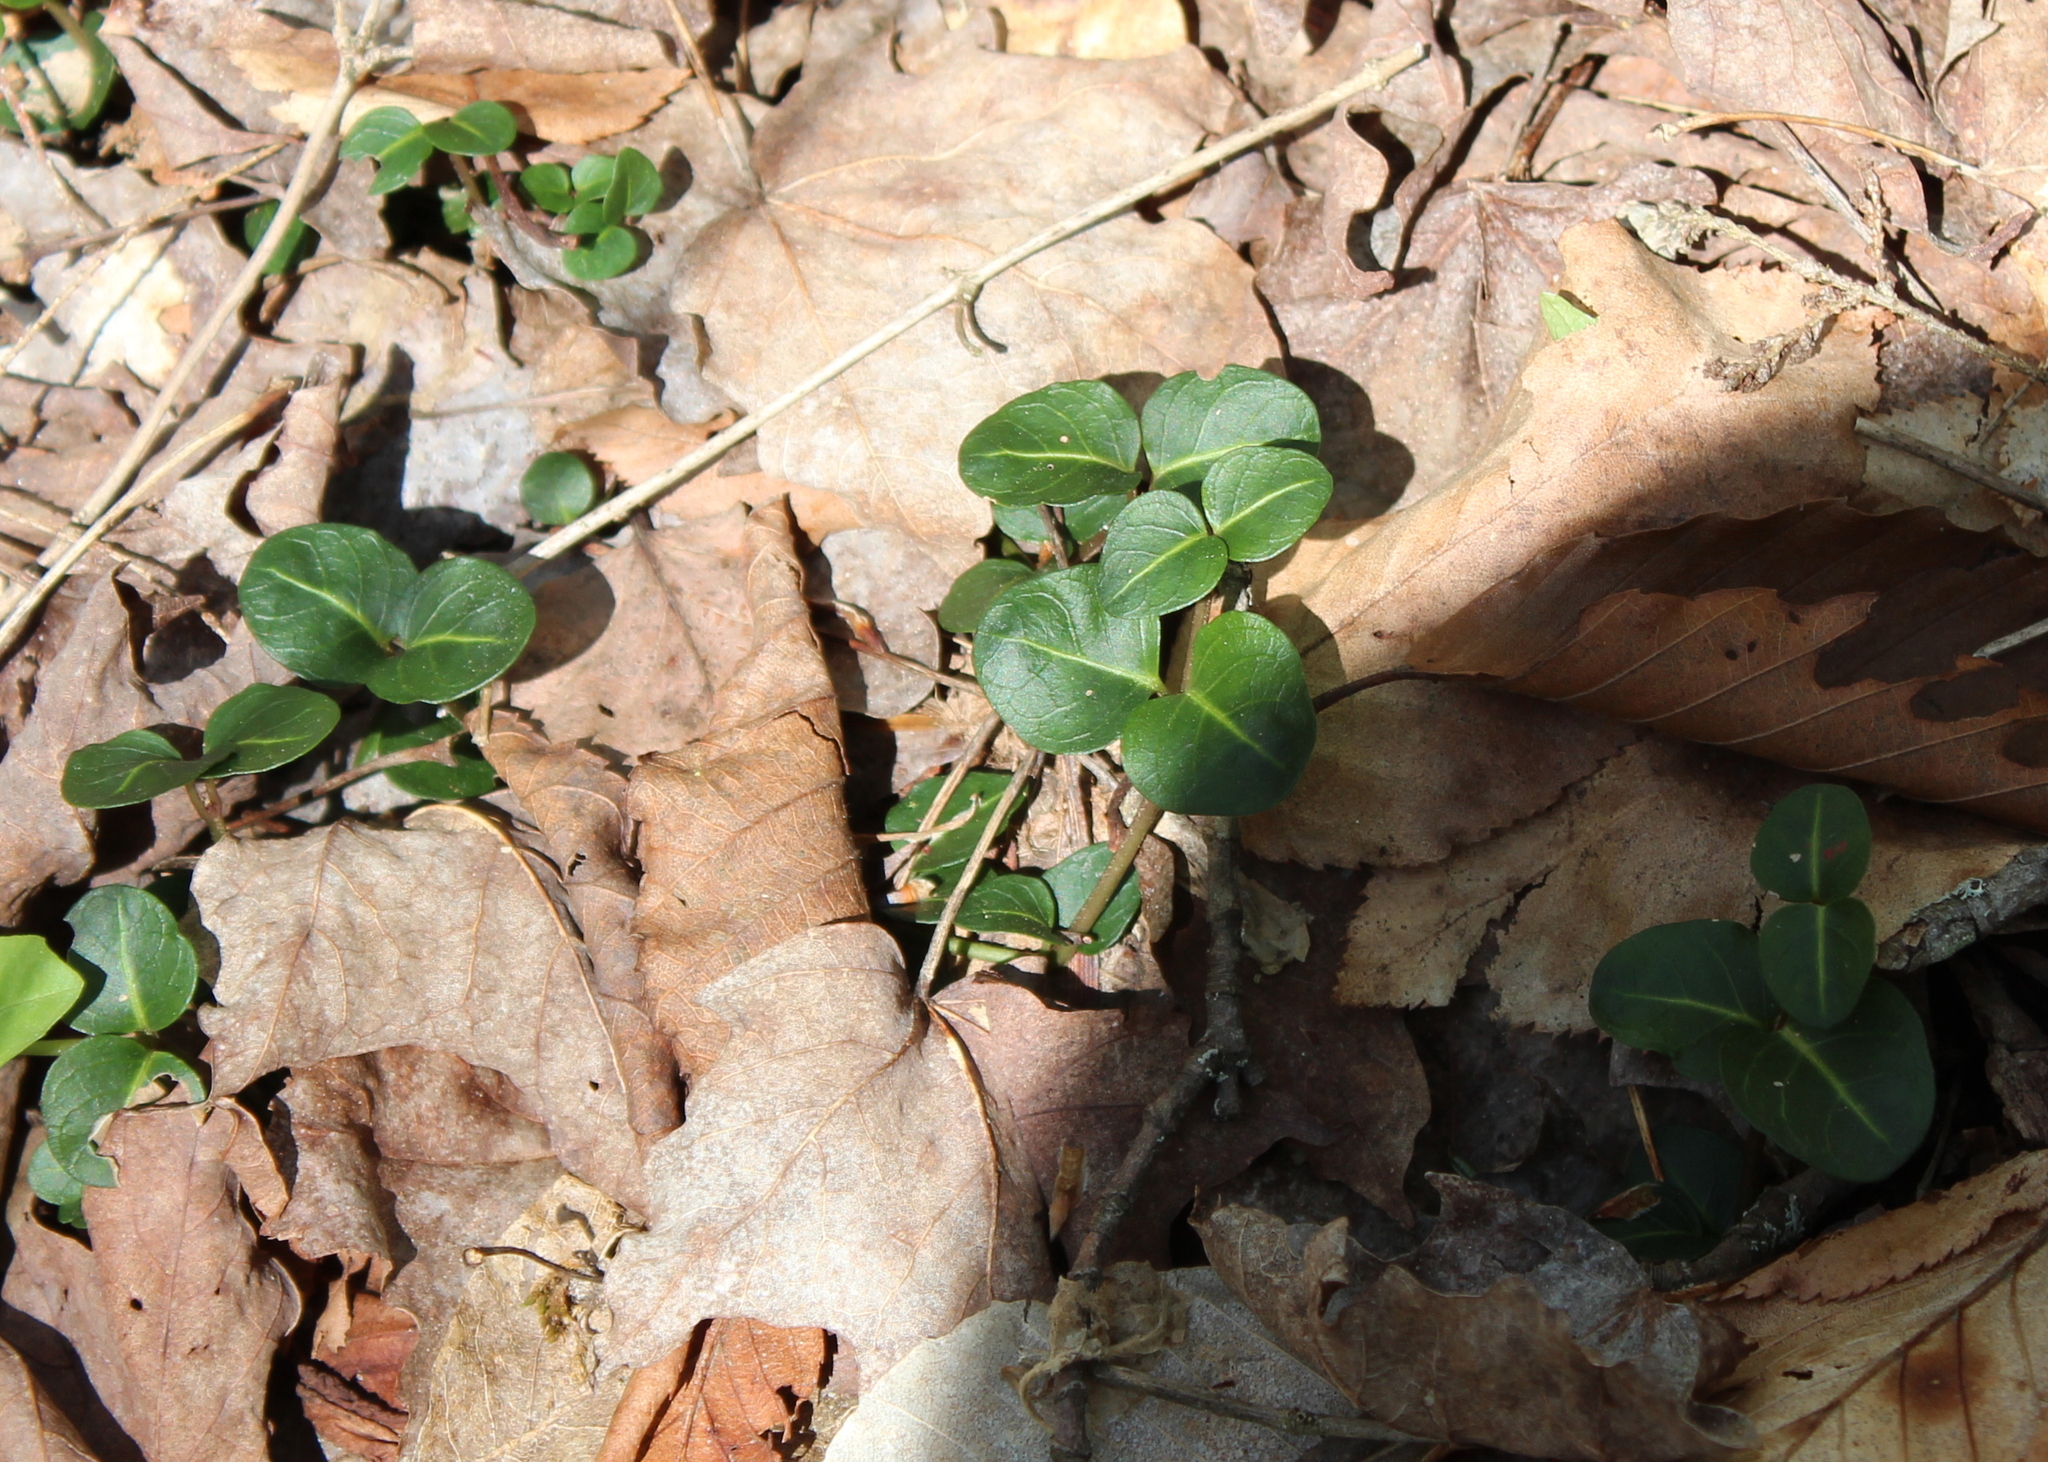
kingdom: Plantae
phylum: Tracheophyta
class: Magnoliopsida
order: Gentianales
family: Rubiaceae
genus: Mitchella
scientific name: Mitchella repens
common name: Partridge-berry
